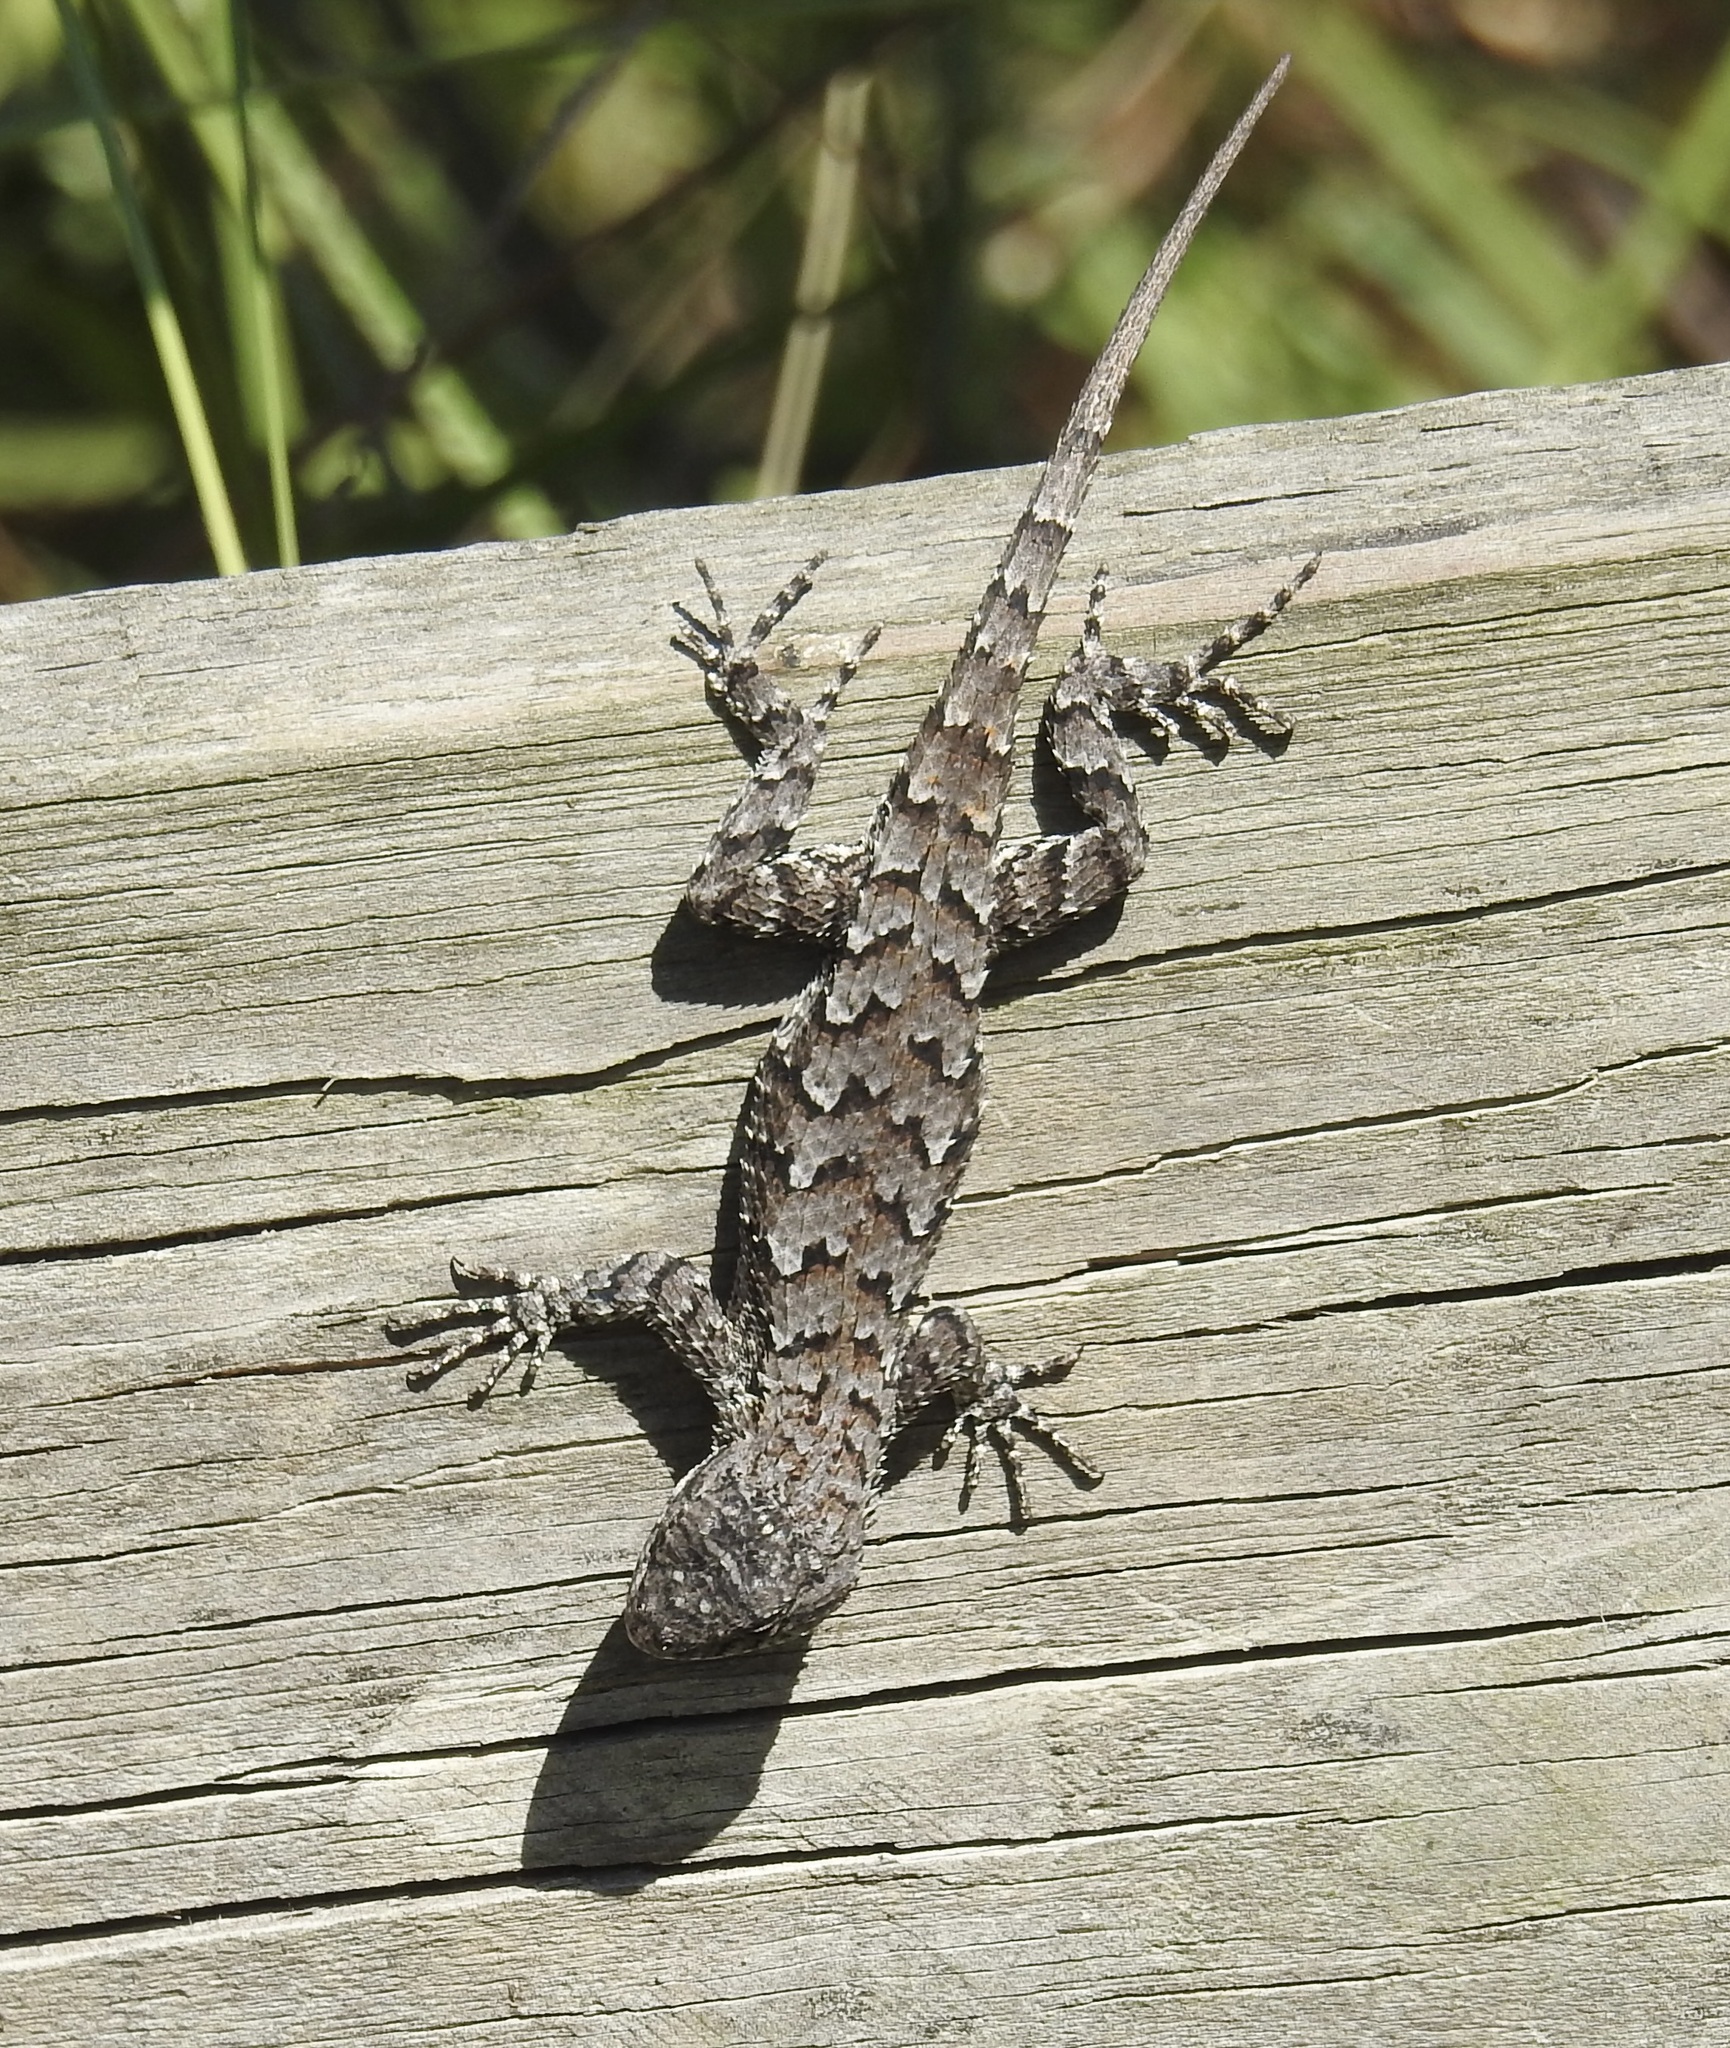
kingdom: Animalia
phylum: Chordata
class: Squamata
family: Phrynosomatidae
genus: Sceloporus
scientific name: Sceloporus undulatus
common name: Eastern fence lizard
